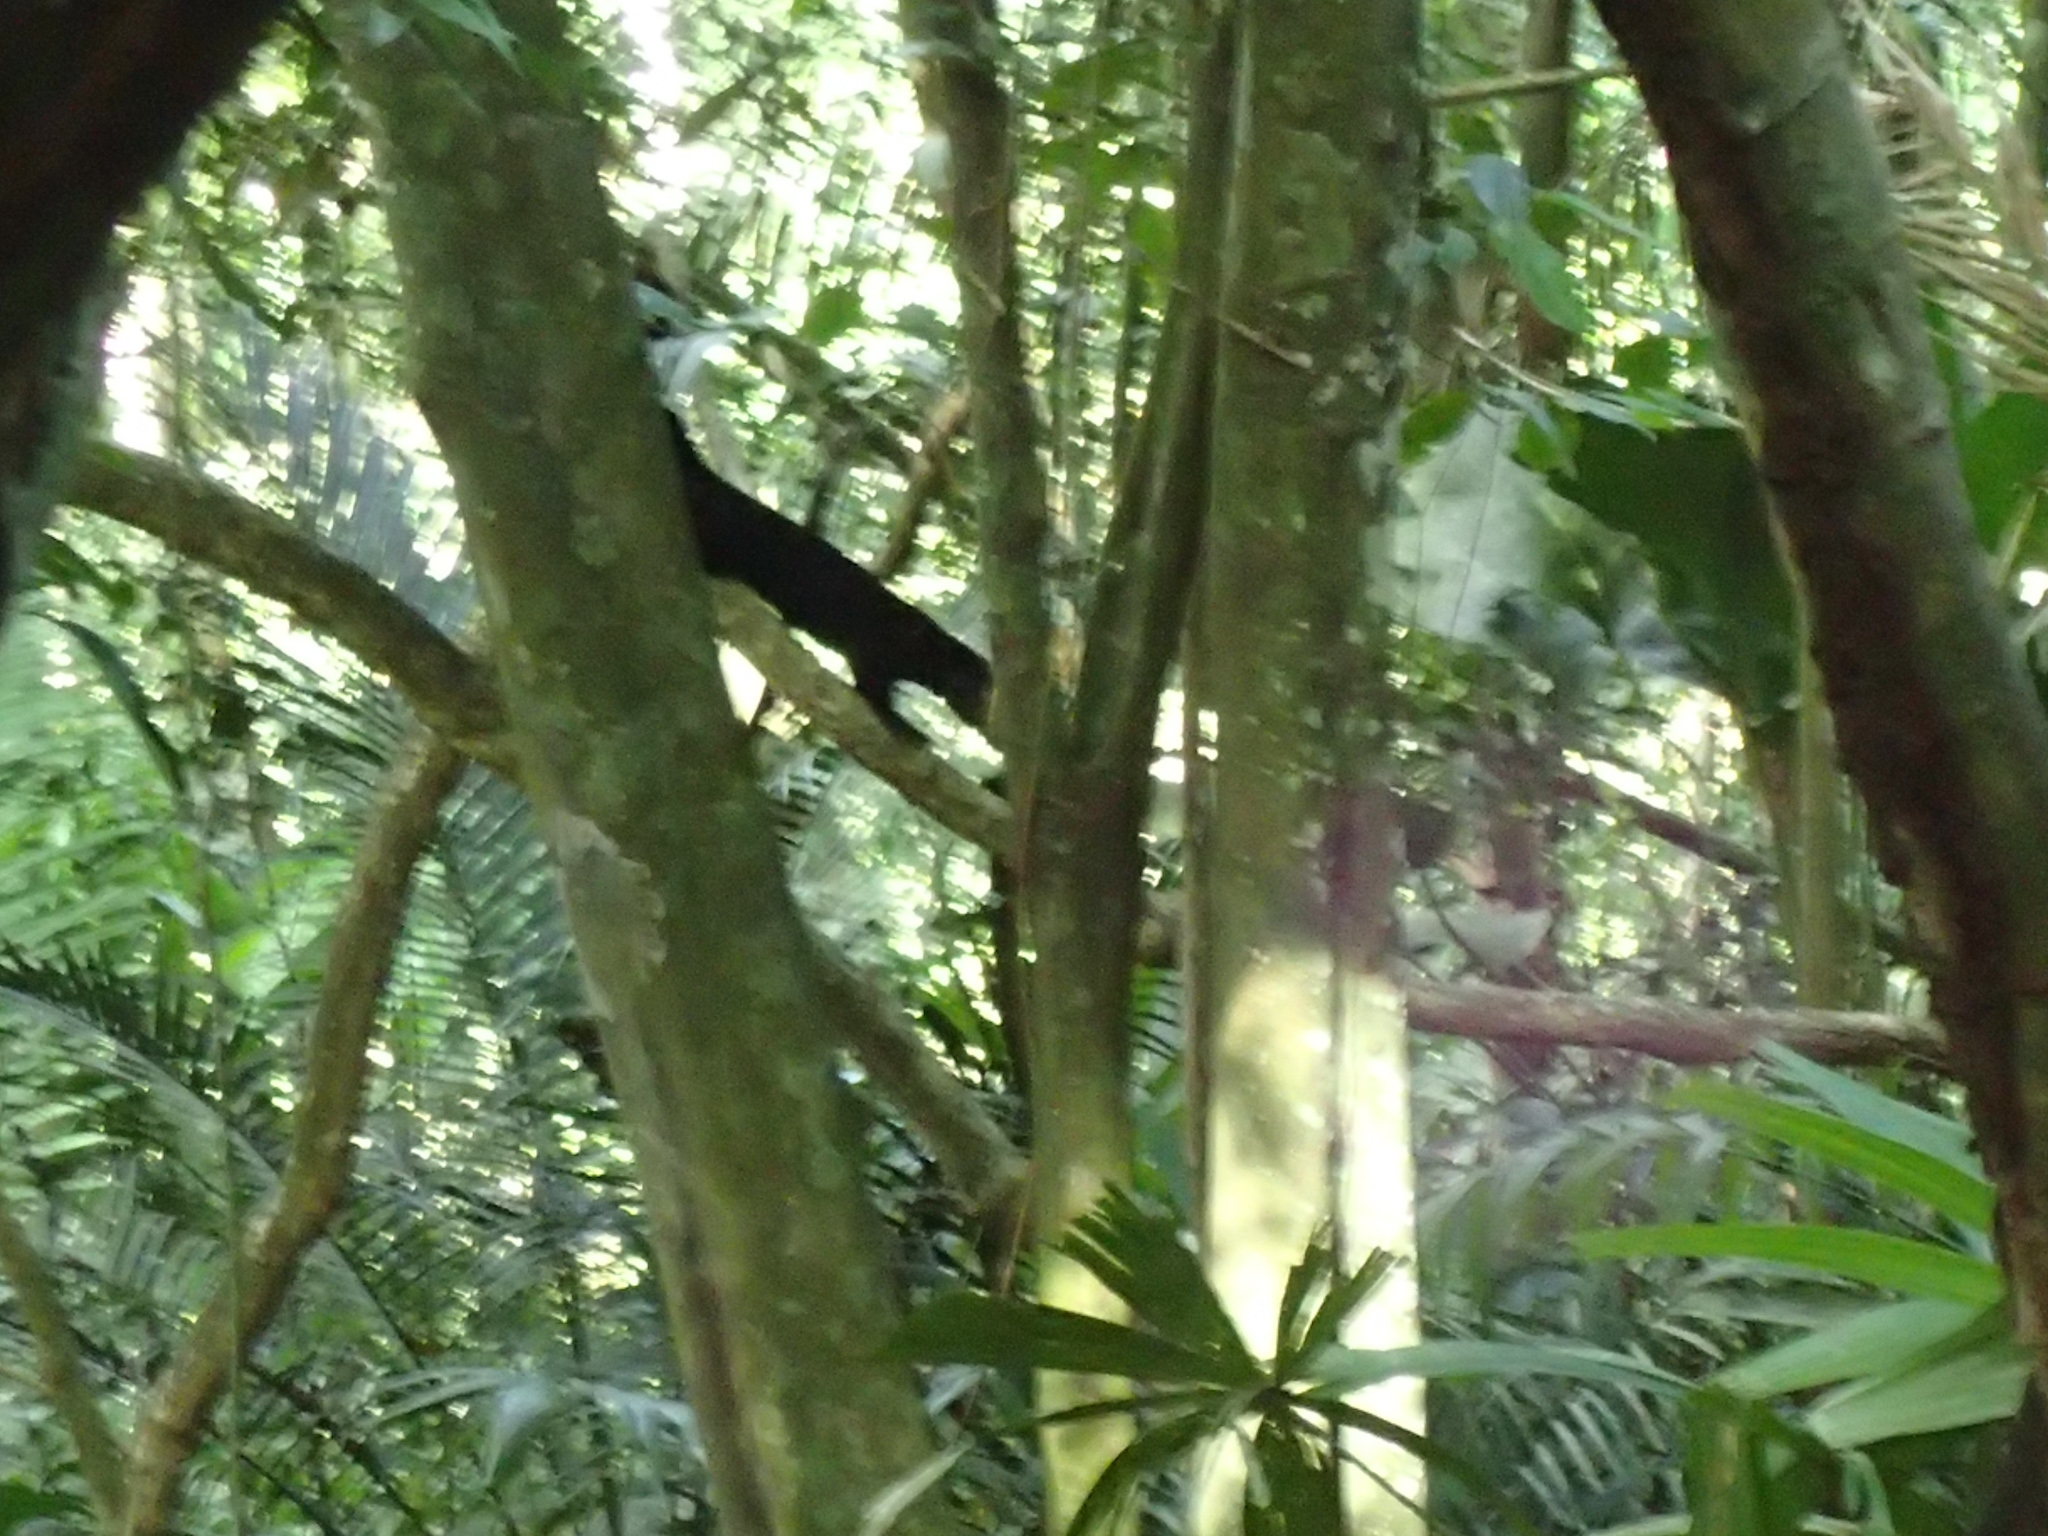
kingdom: Animalia
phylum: Chordata
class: Mammalia
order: Carnivora
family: Mustelidae
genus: Eira
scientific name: Eira barbara
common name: Tayra
